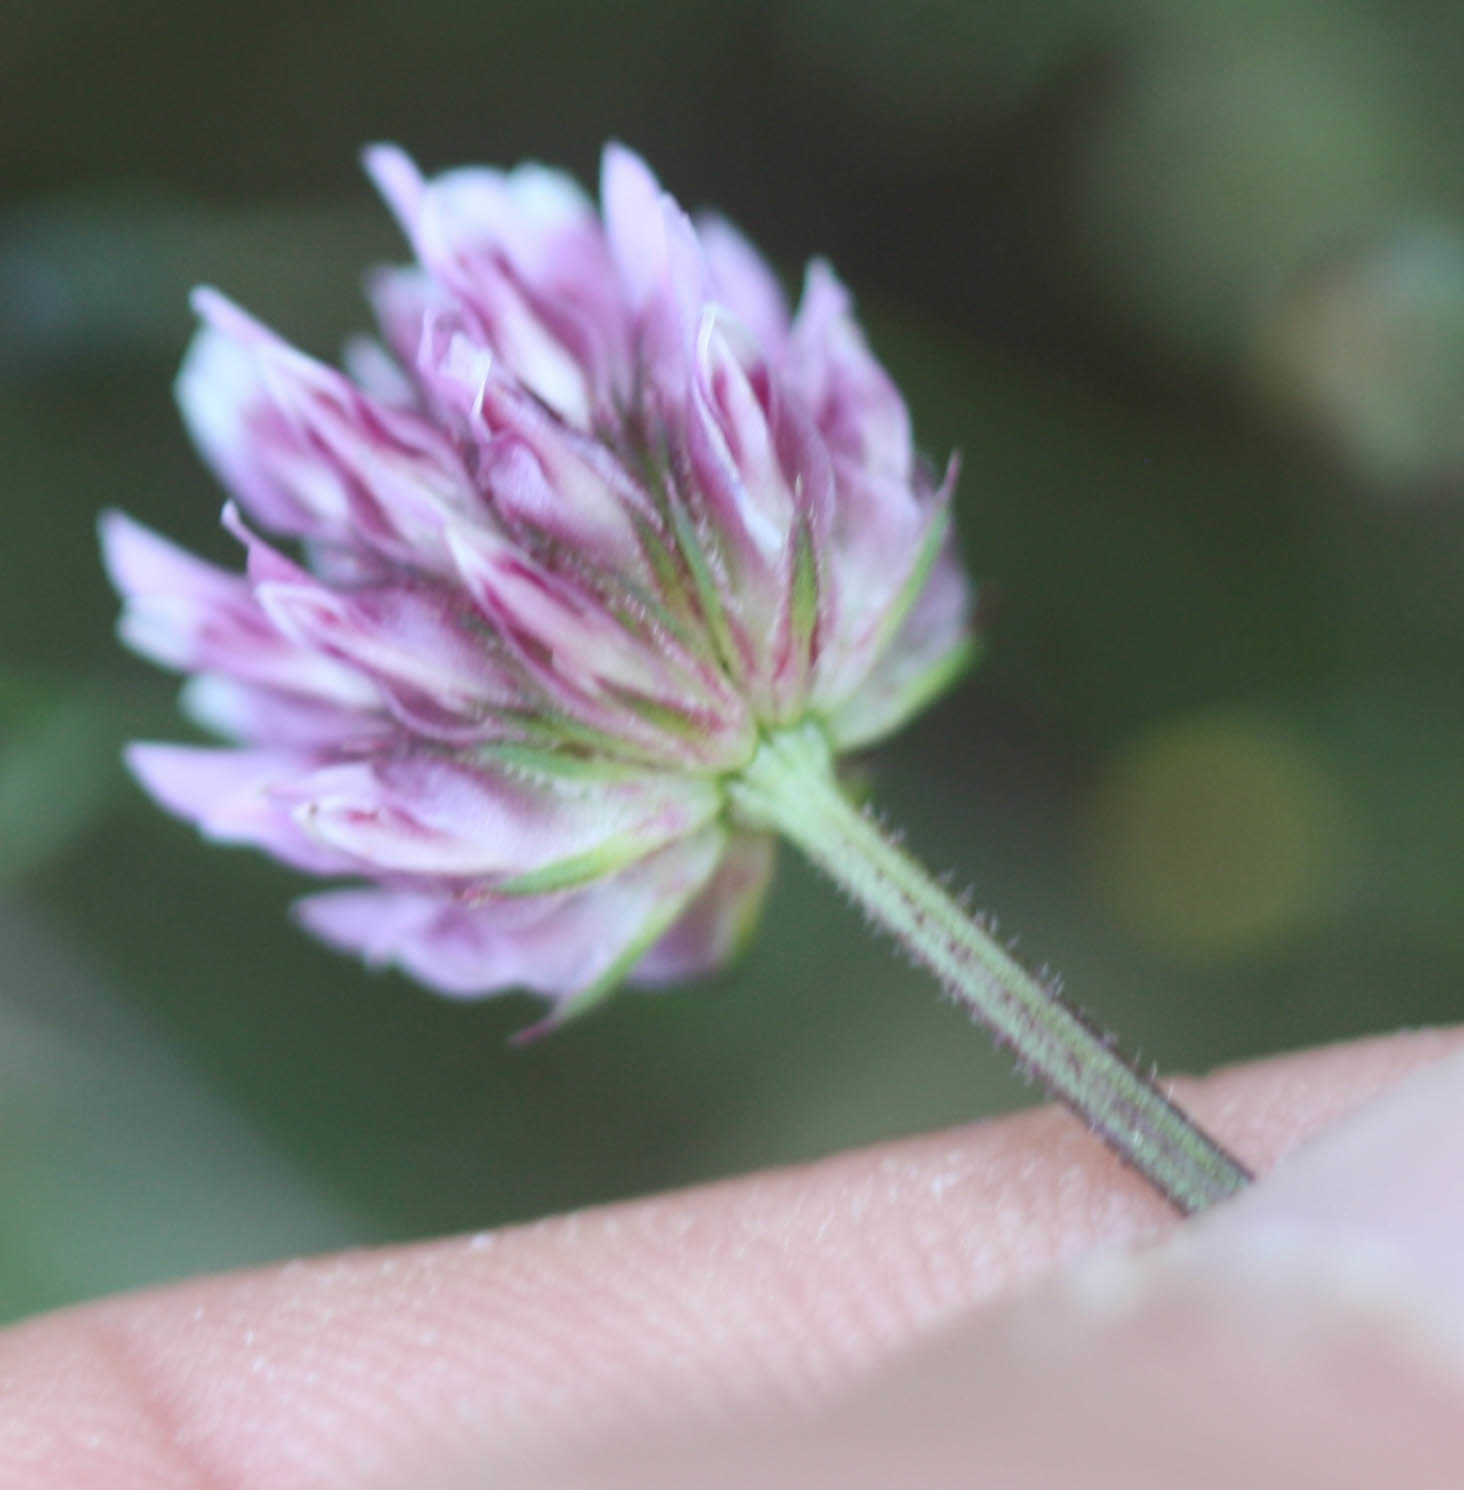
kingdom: Plantae
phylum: Tracheophyta
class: Magnoliopsida
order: Fabales
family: Fabaceae
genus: Trifolium
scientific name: Trifolium ciliolatum
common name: Foothill clover
